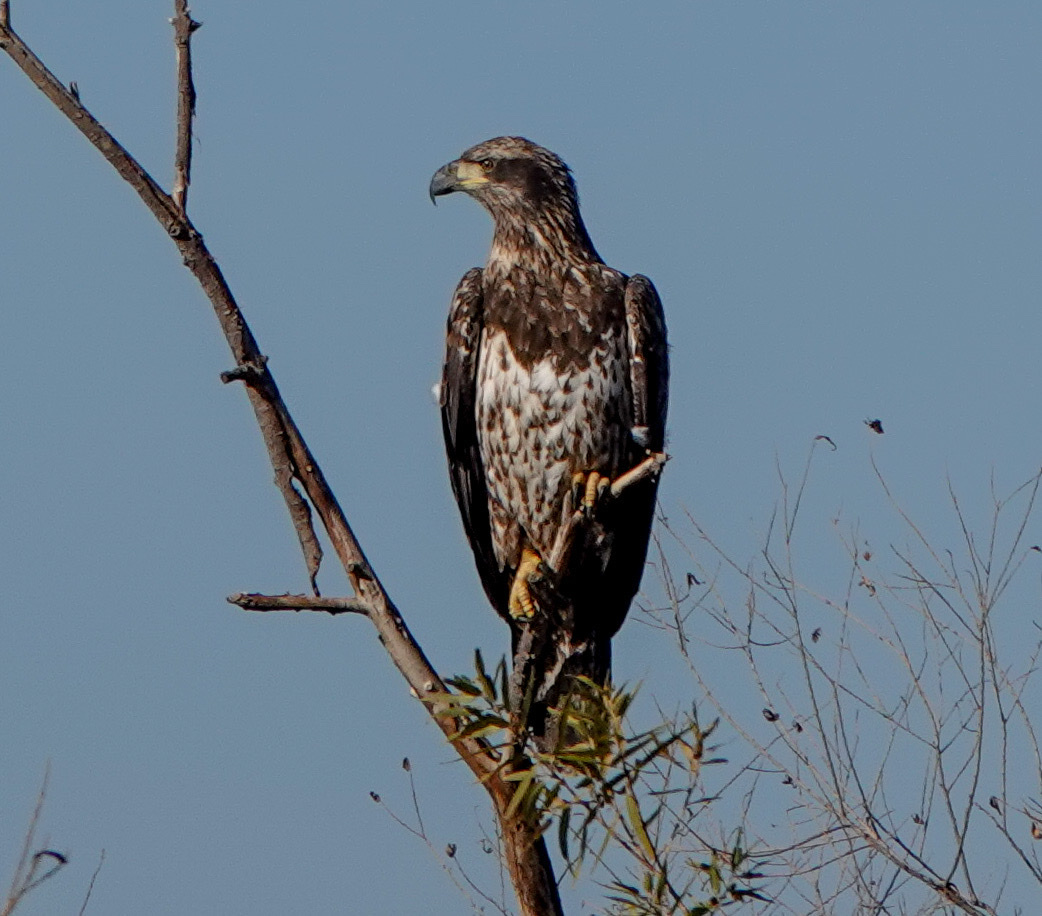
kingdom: Animalia
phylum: Chordata
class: Aves
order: Accipitriformes
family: Accipitridae
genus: Haliaeetus
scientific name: Haliaeetus leucocephalus
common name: Bald eagle
